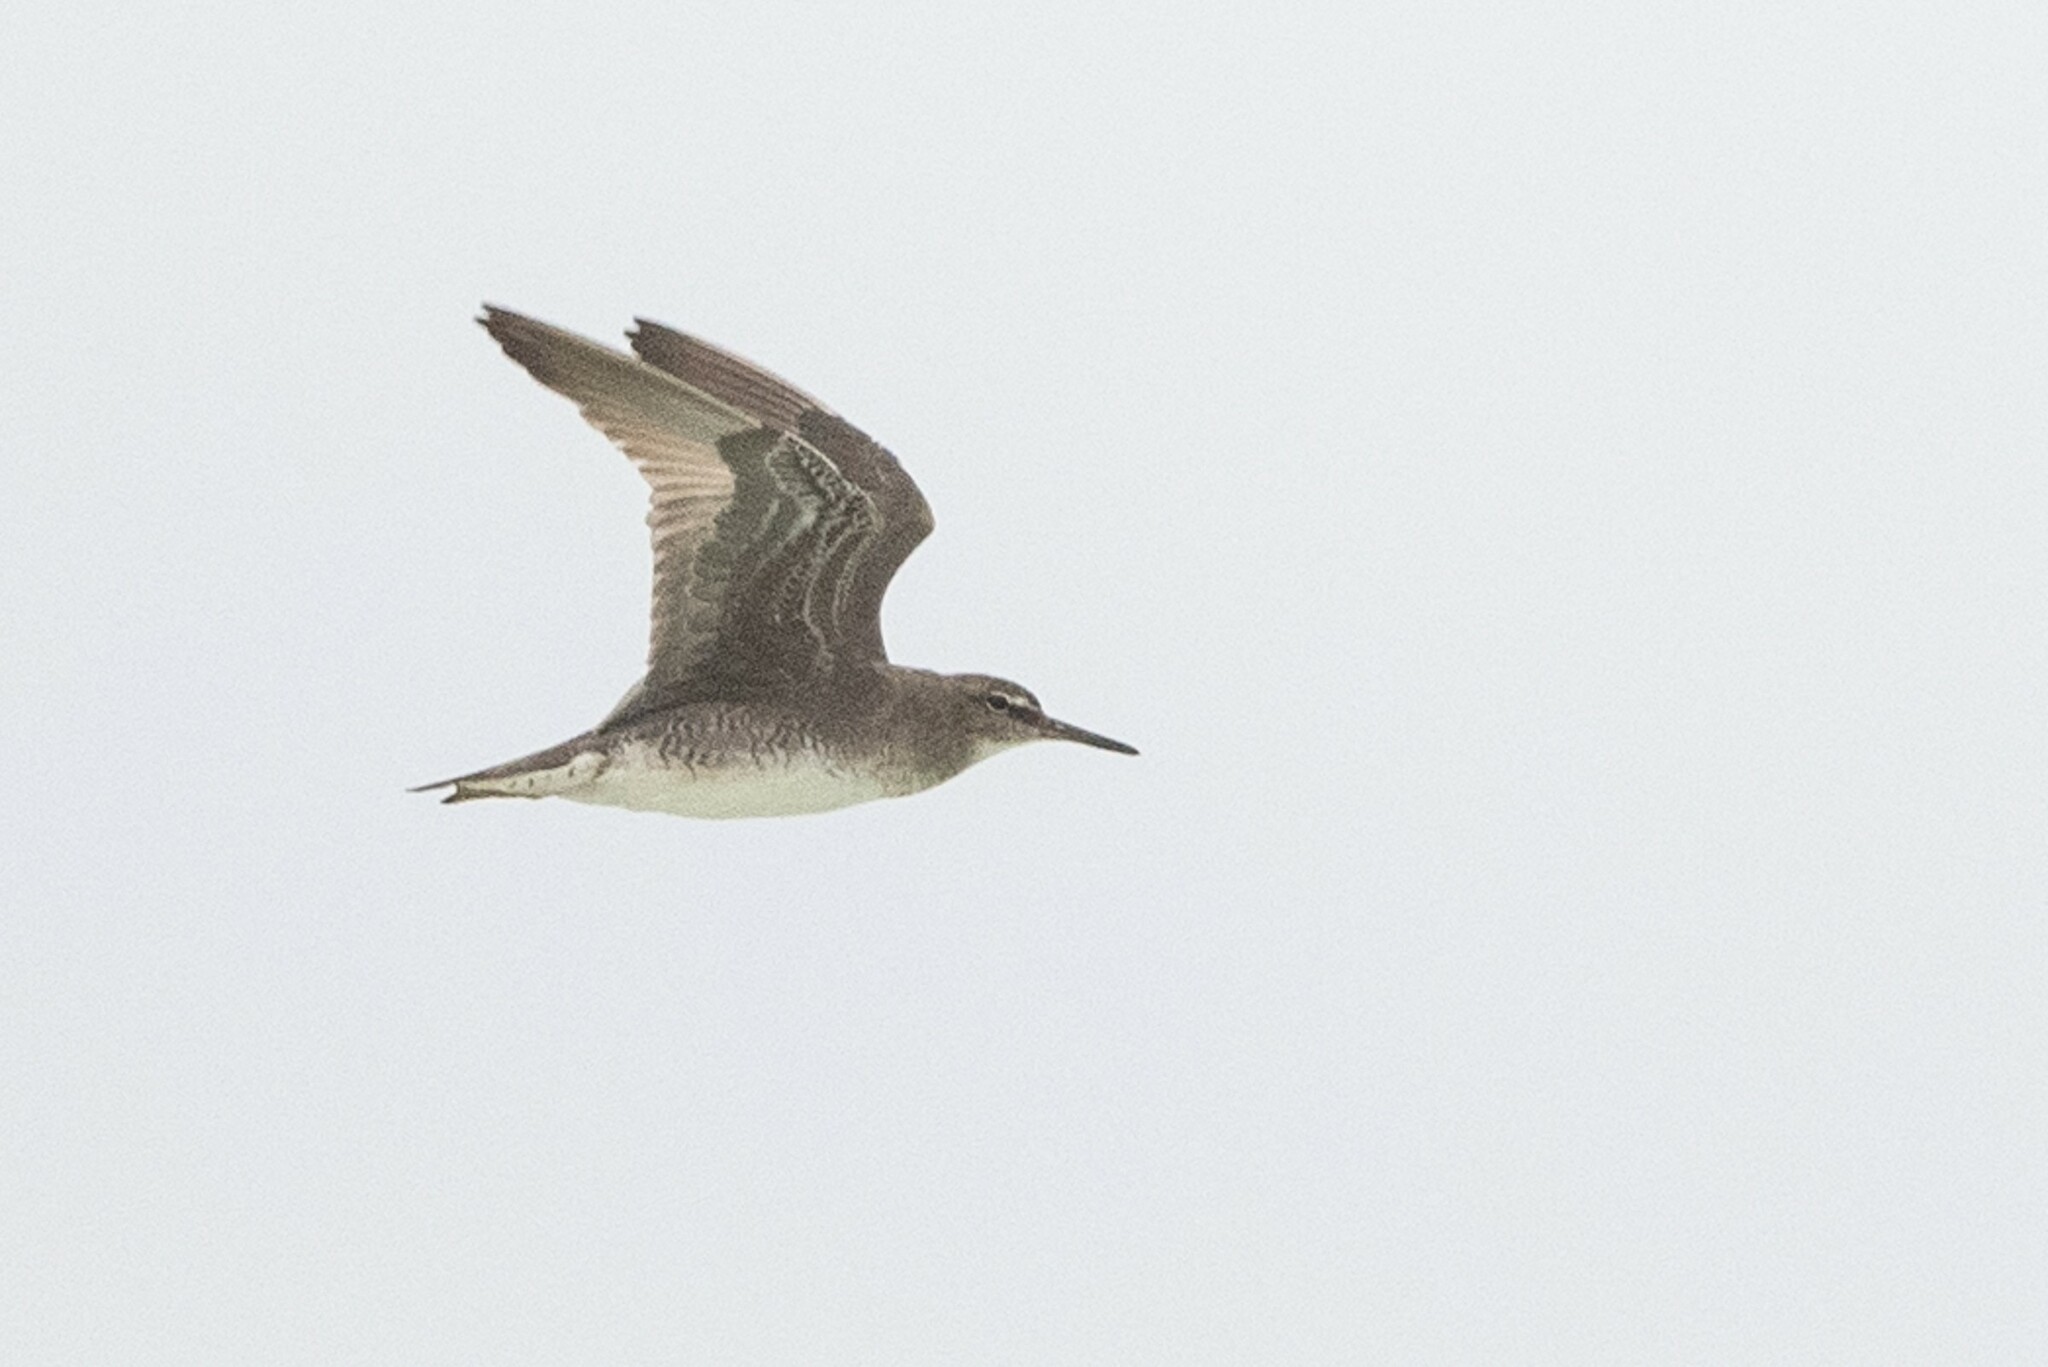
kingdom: Animalia
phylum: Chordata
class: Aves
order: Charadriiformes
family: Scolopacidae
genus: Tringa
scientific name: Tringa incana
